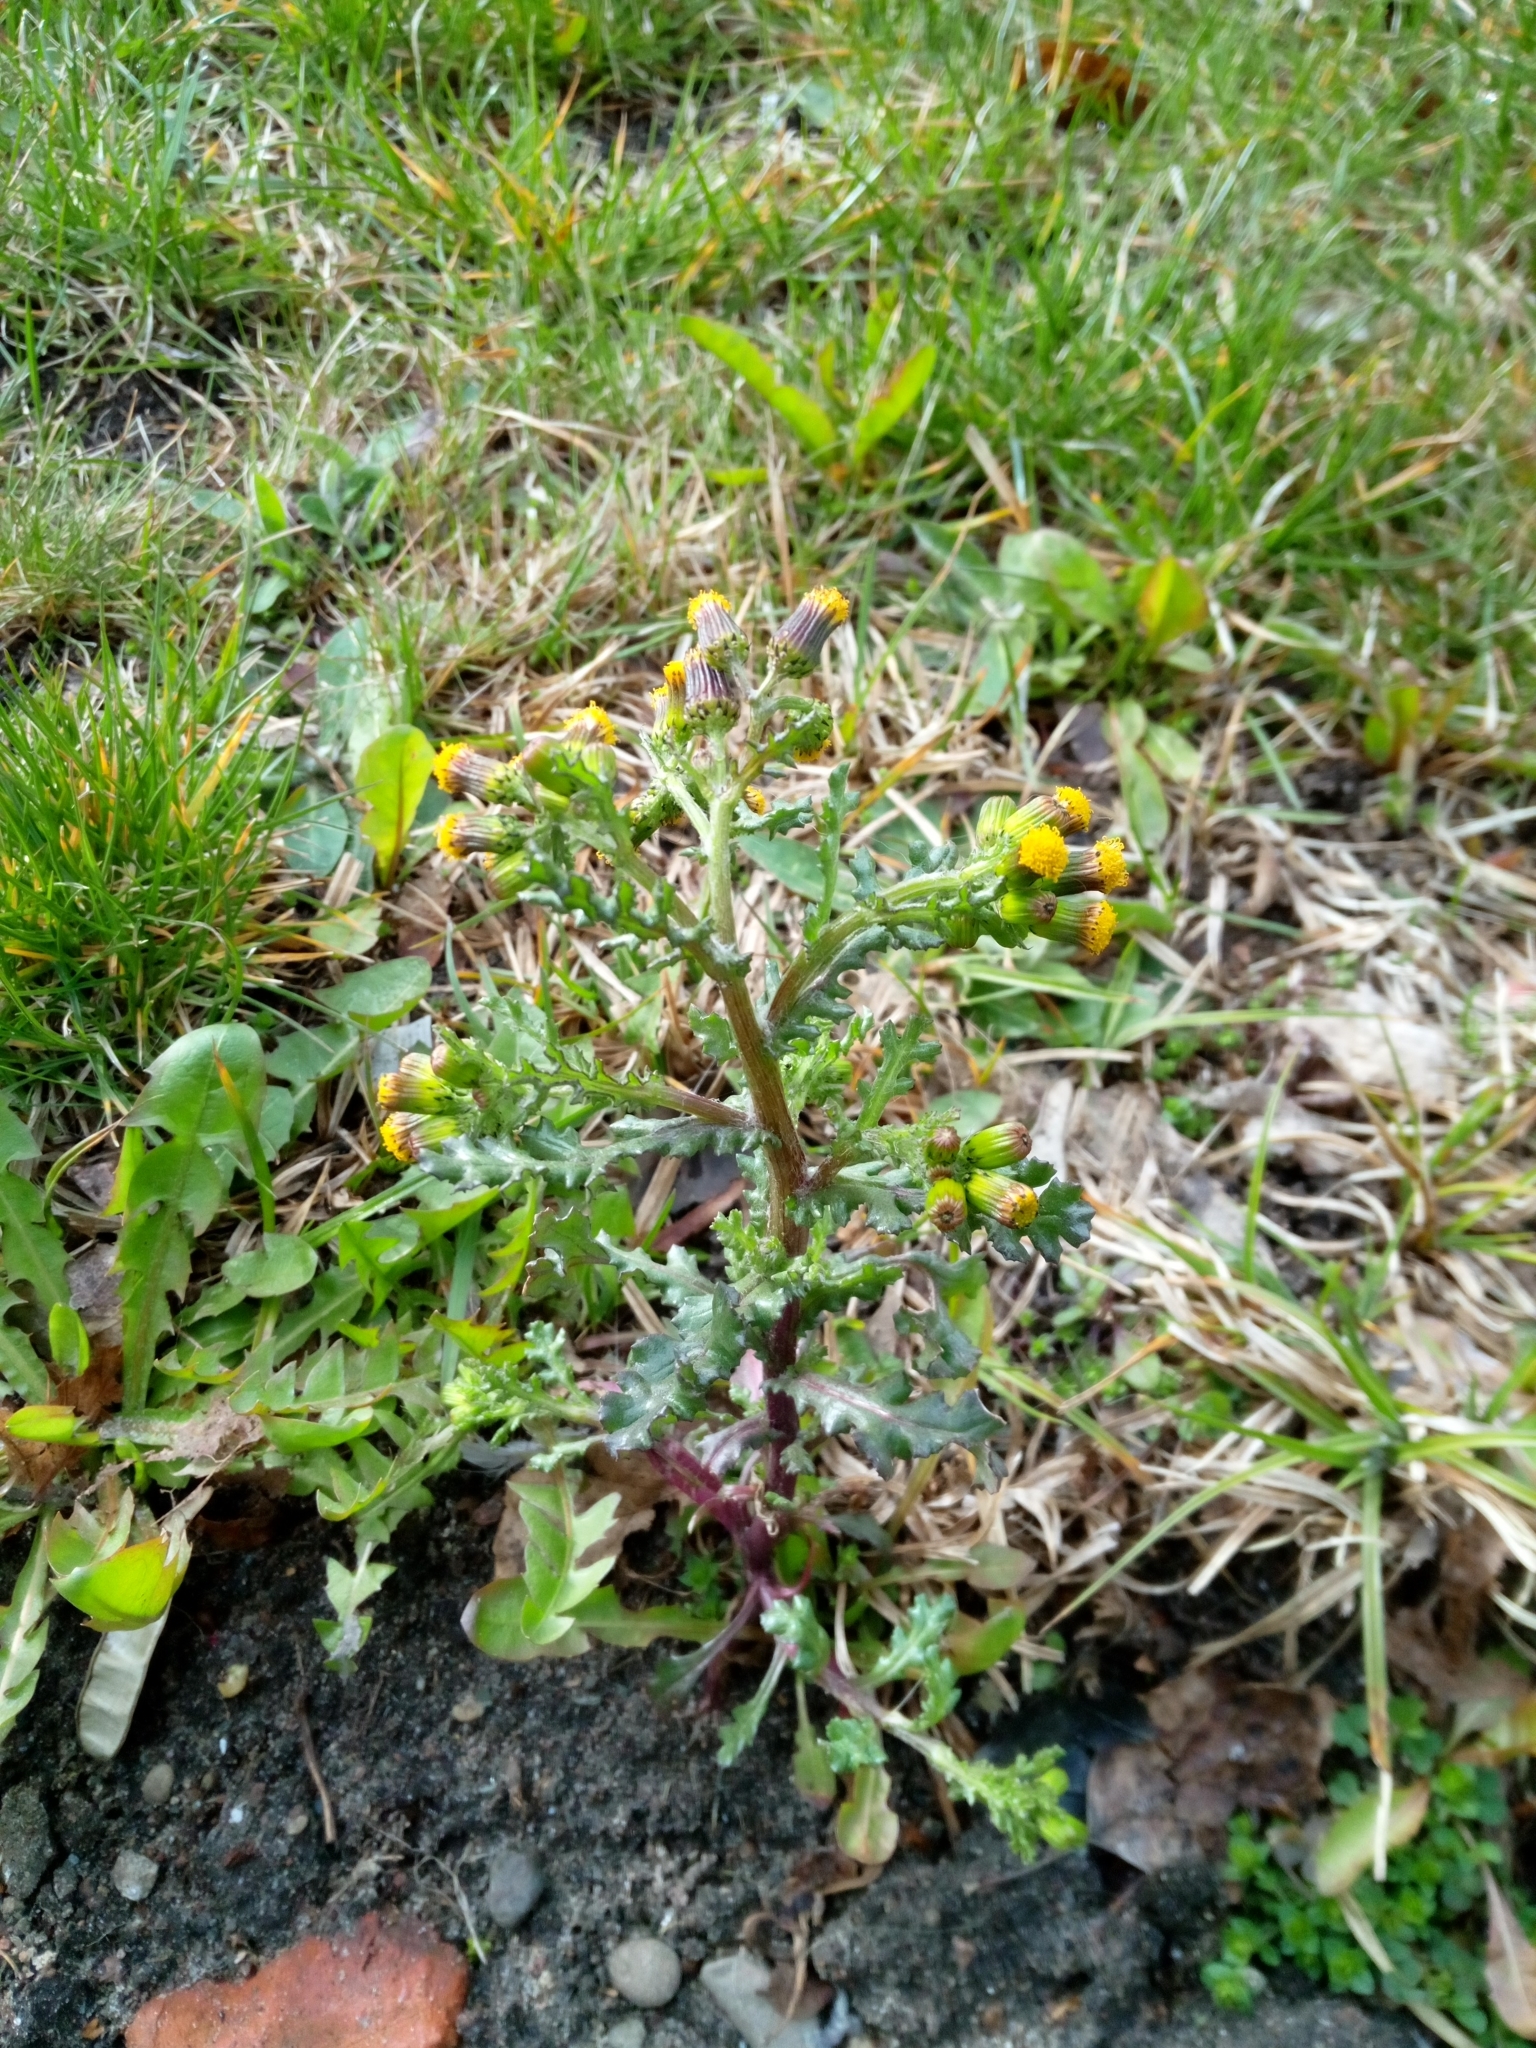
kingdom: Plantae
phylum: Tracheophyta
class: Magnoliopsida
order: Asterales
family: Asteraceae
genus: Senecio
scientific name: Senecio vulgaris
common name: Old-man-in-the-spring
